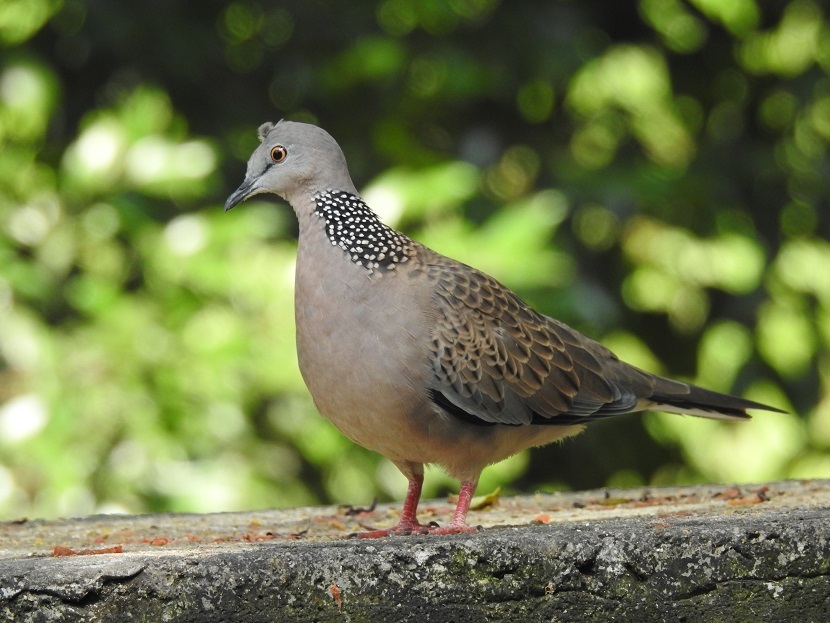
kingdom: Animalia
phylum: Chordata
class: Aves
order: Columbiformes
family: Columbidae
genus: Spilopelia
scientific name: Spilopelia chinensis
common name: Spotted dove
